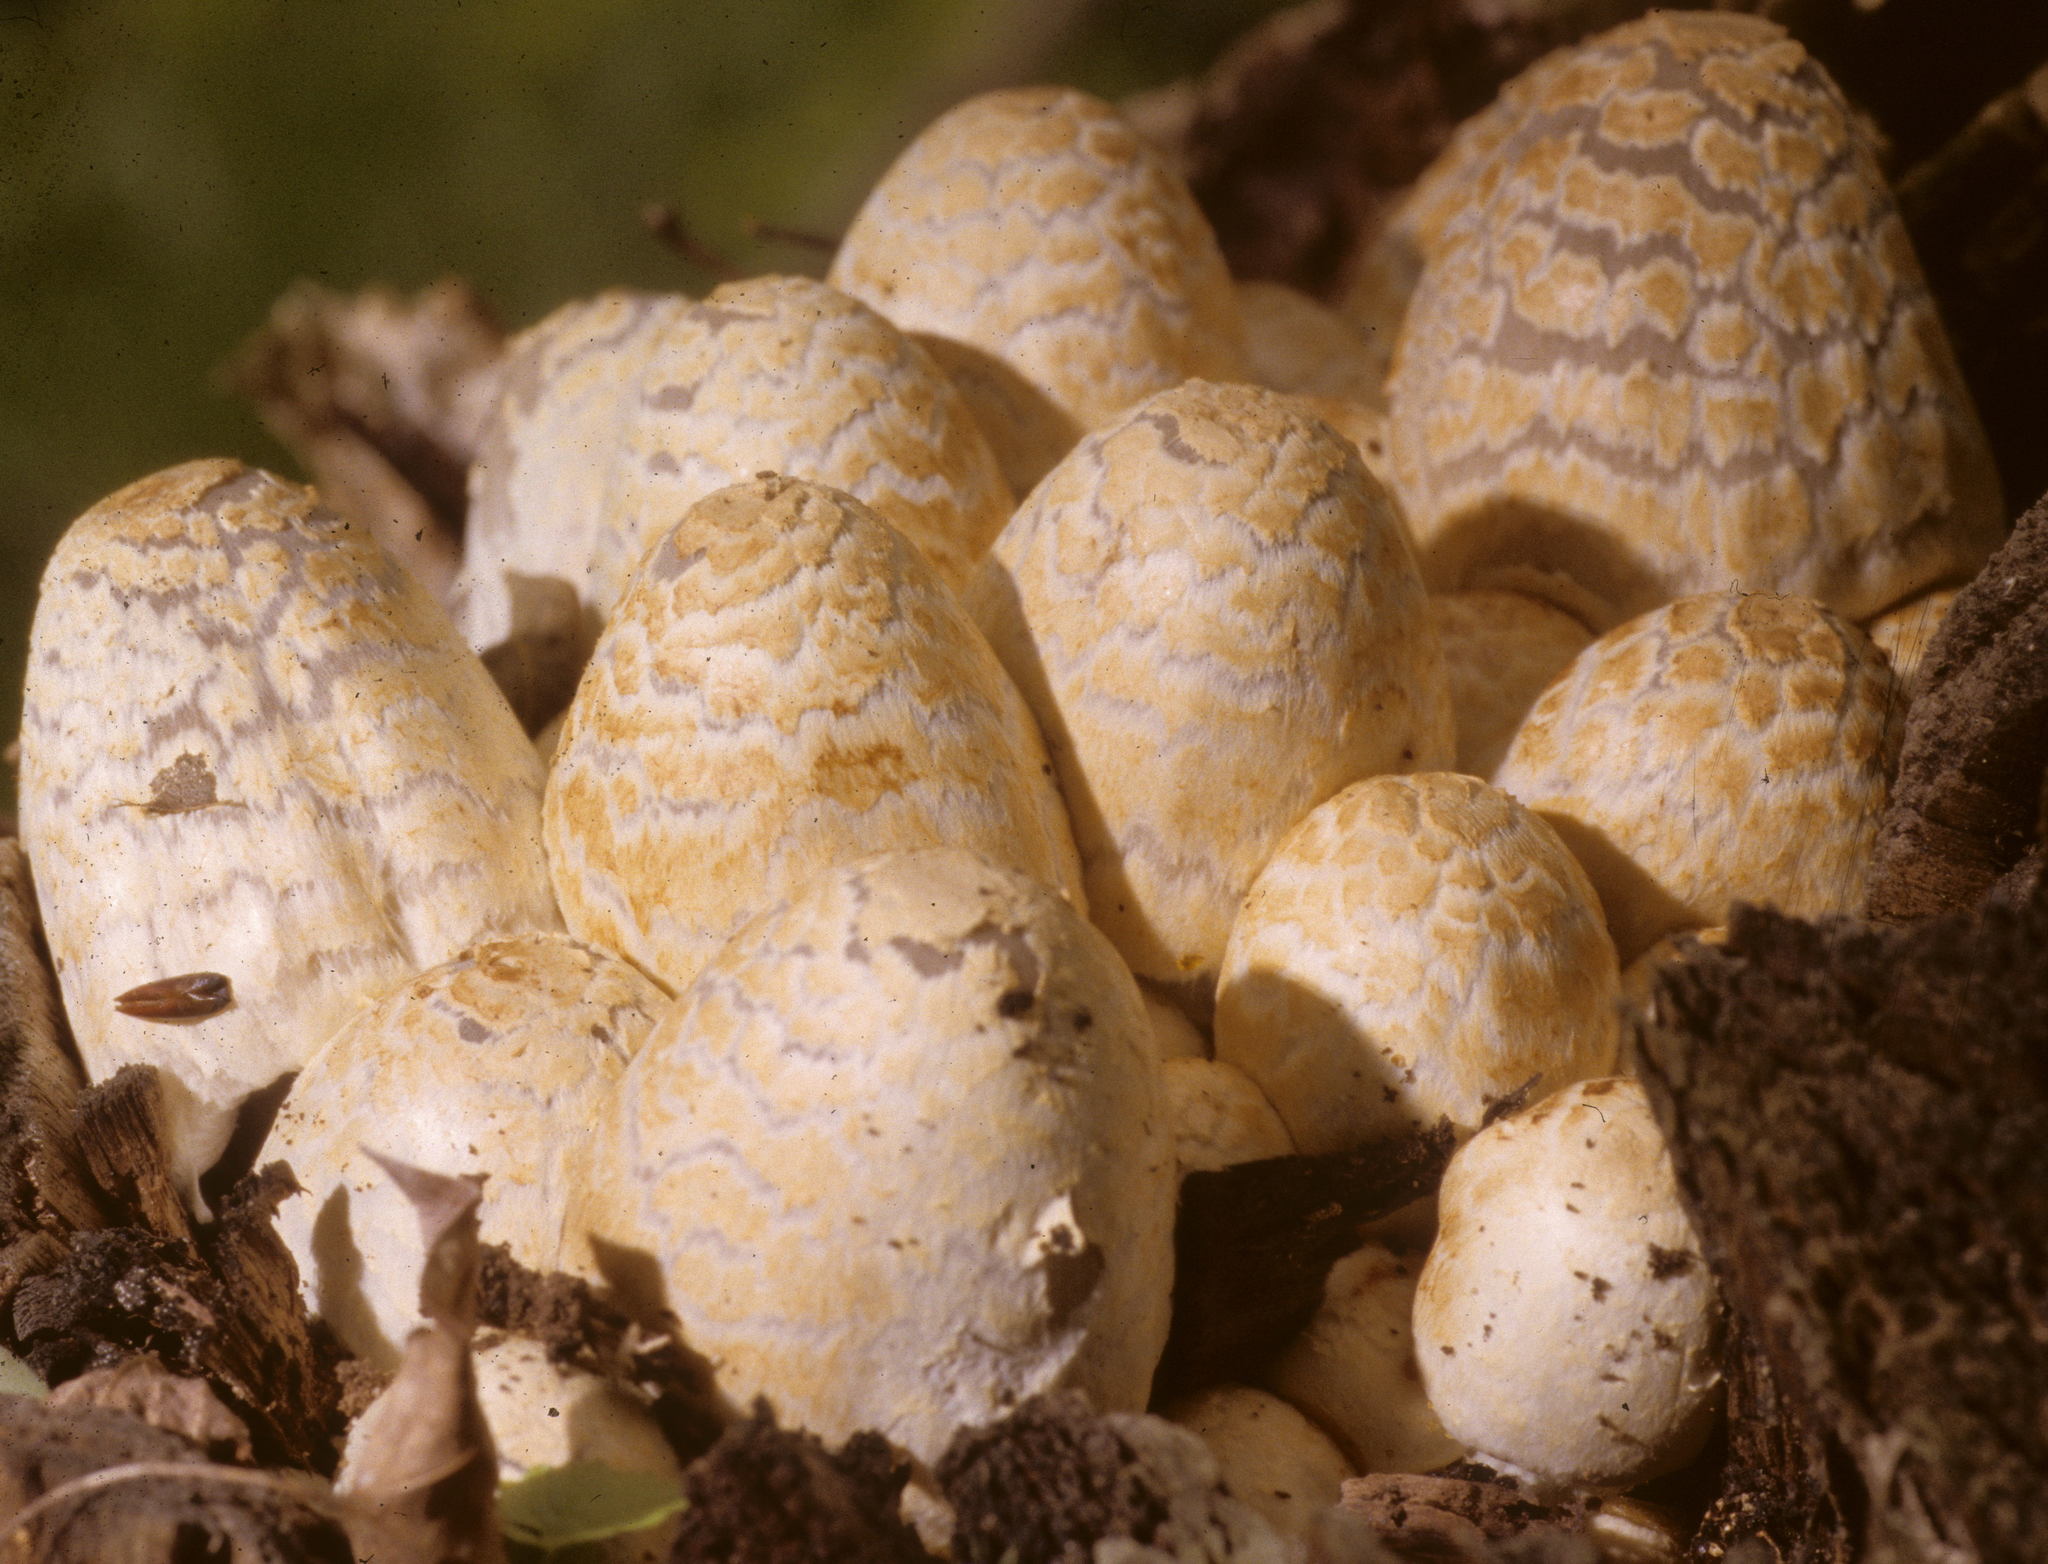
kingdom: Fungi
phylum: Basidiomycota
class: Agaricomycetes
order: Agaricales
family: Psathyrellaceae
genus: Coprinopsis
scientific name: Coprinopsis variegata
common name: Scaly ink cap
